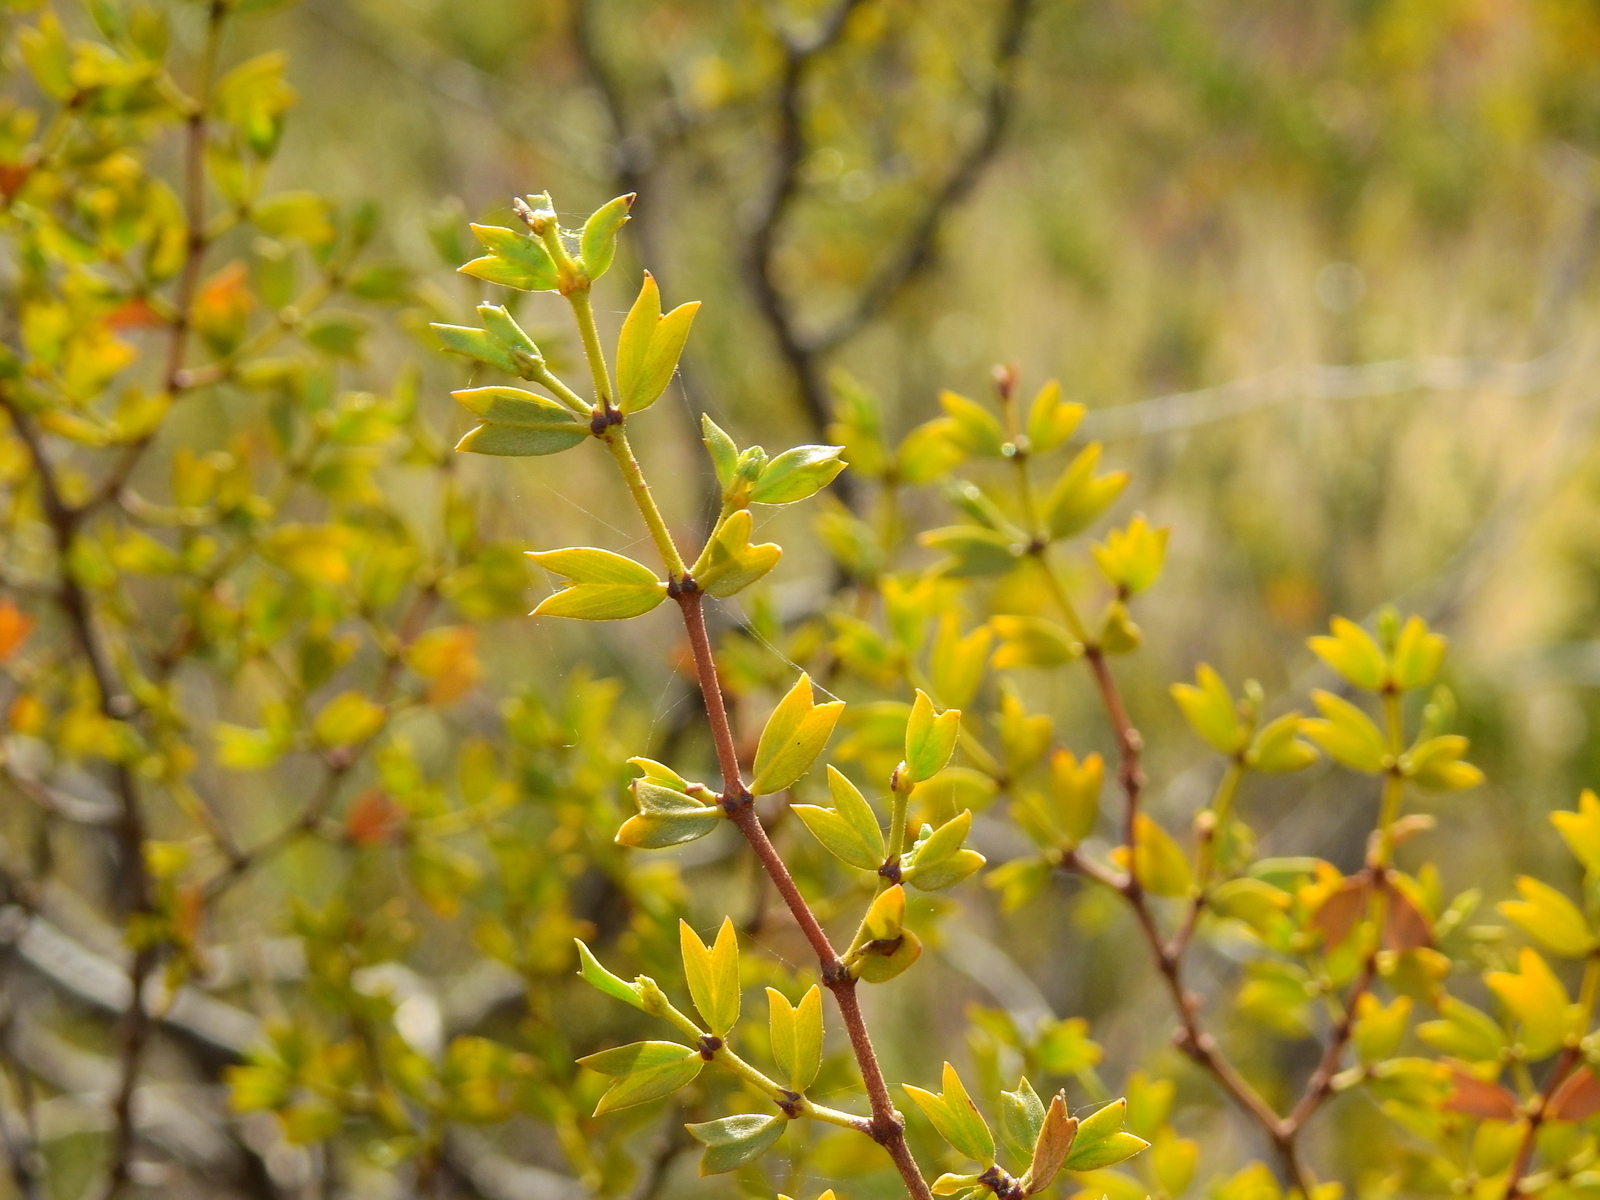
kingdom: Plantae
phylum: Tracheophyta
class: Magnoliopsida
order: Zygophyllales
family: Zygophyllaceae
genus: Larrea
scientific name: Larrea cuneifolia
